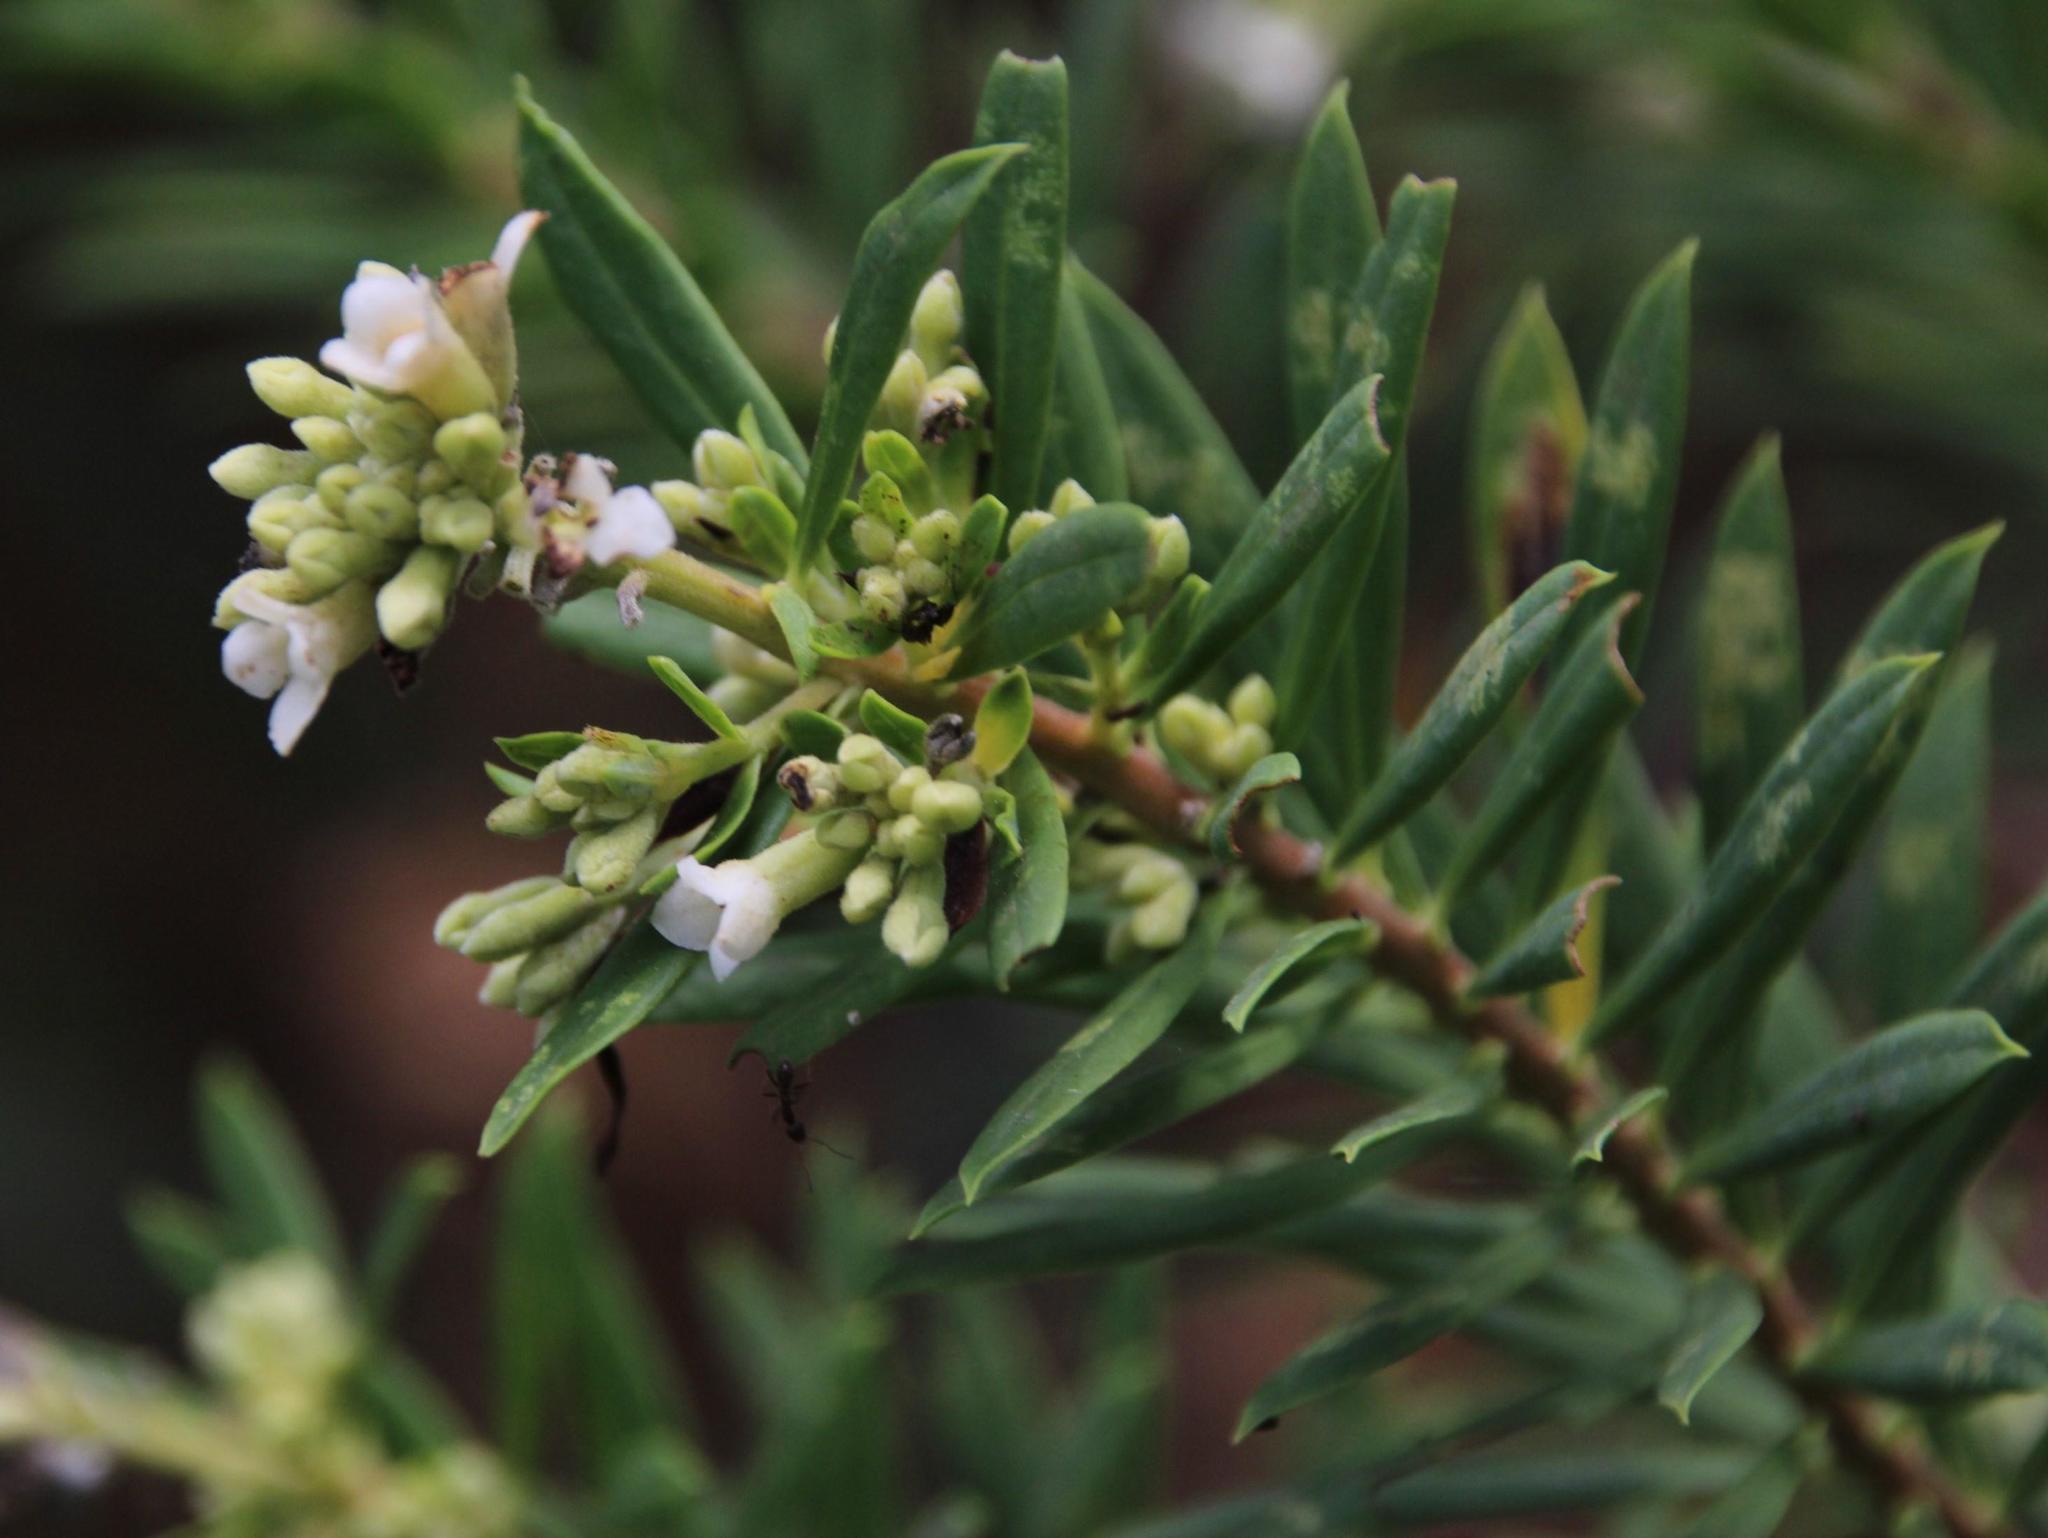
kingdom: Plantae
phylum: Tracheophyta
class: Magnoliopsida
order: Malvales
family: Thymelaeaceae
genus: Daphne
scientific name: Daphne gnidium
